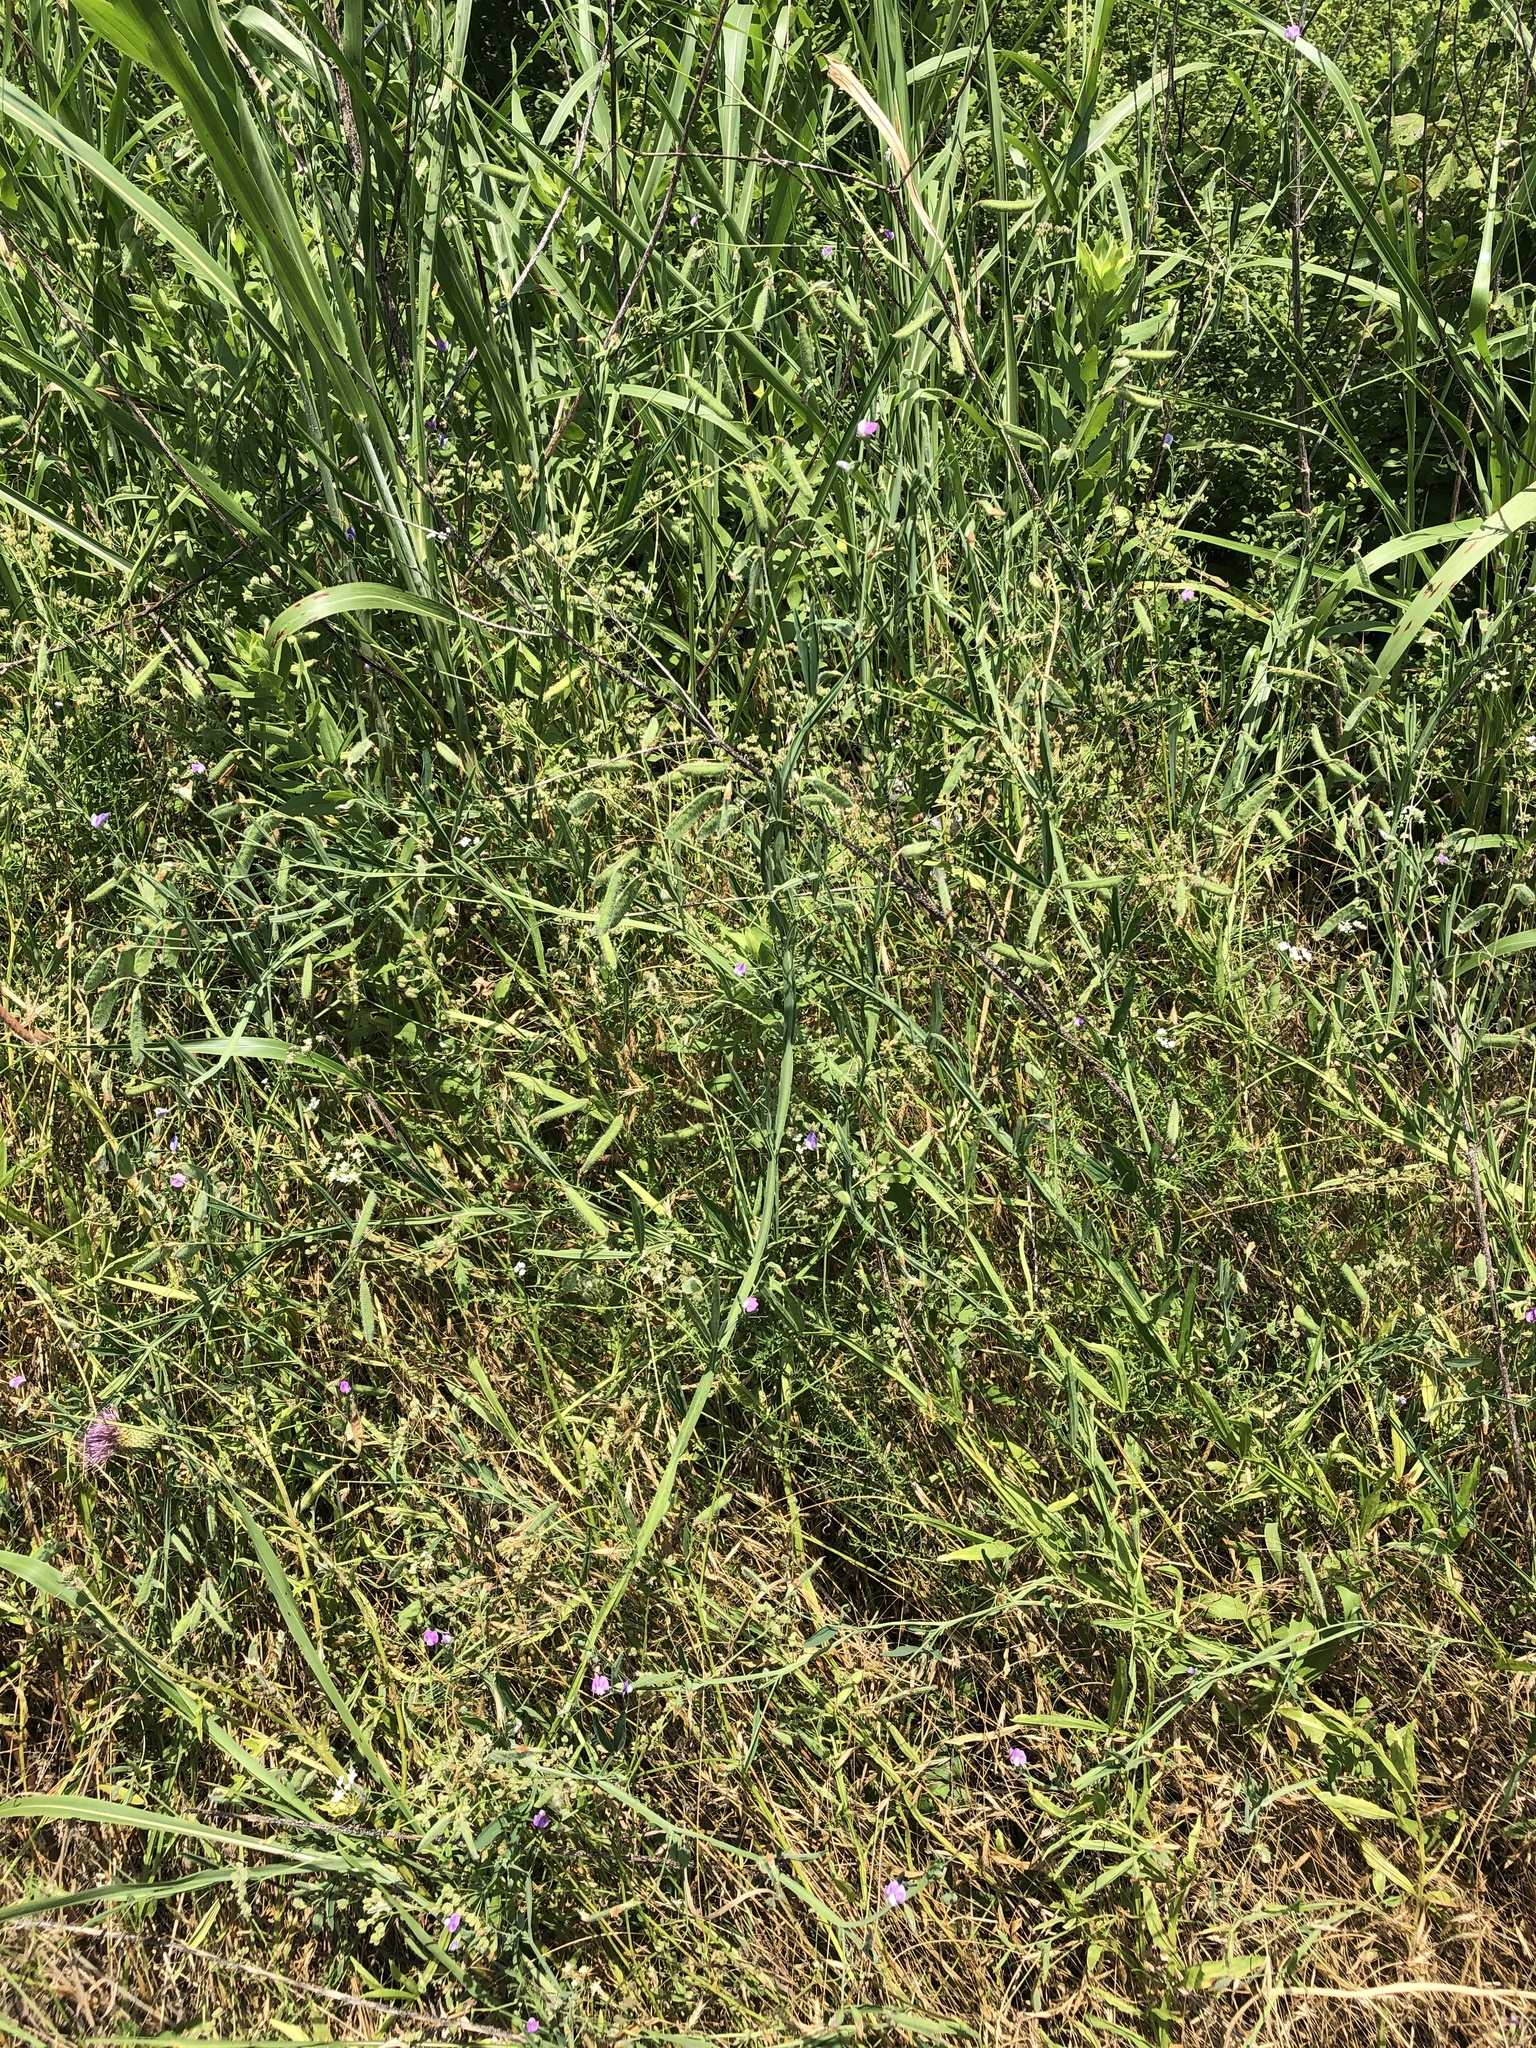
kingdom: Plantae
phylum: Tracheophyta
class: Magnoliopsida
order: Fabales
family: Fabaceae
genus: Lathyrus
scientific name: Lathyrus hirsutus
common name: Hairy vetchling
